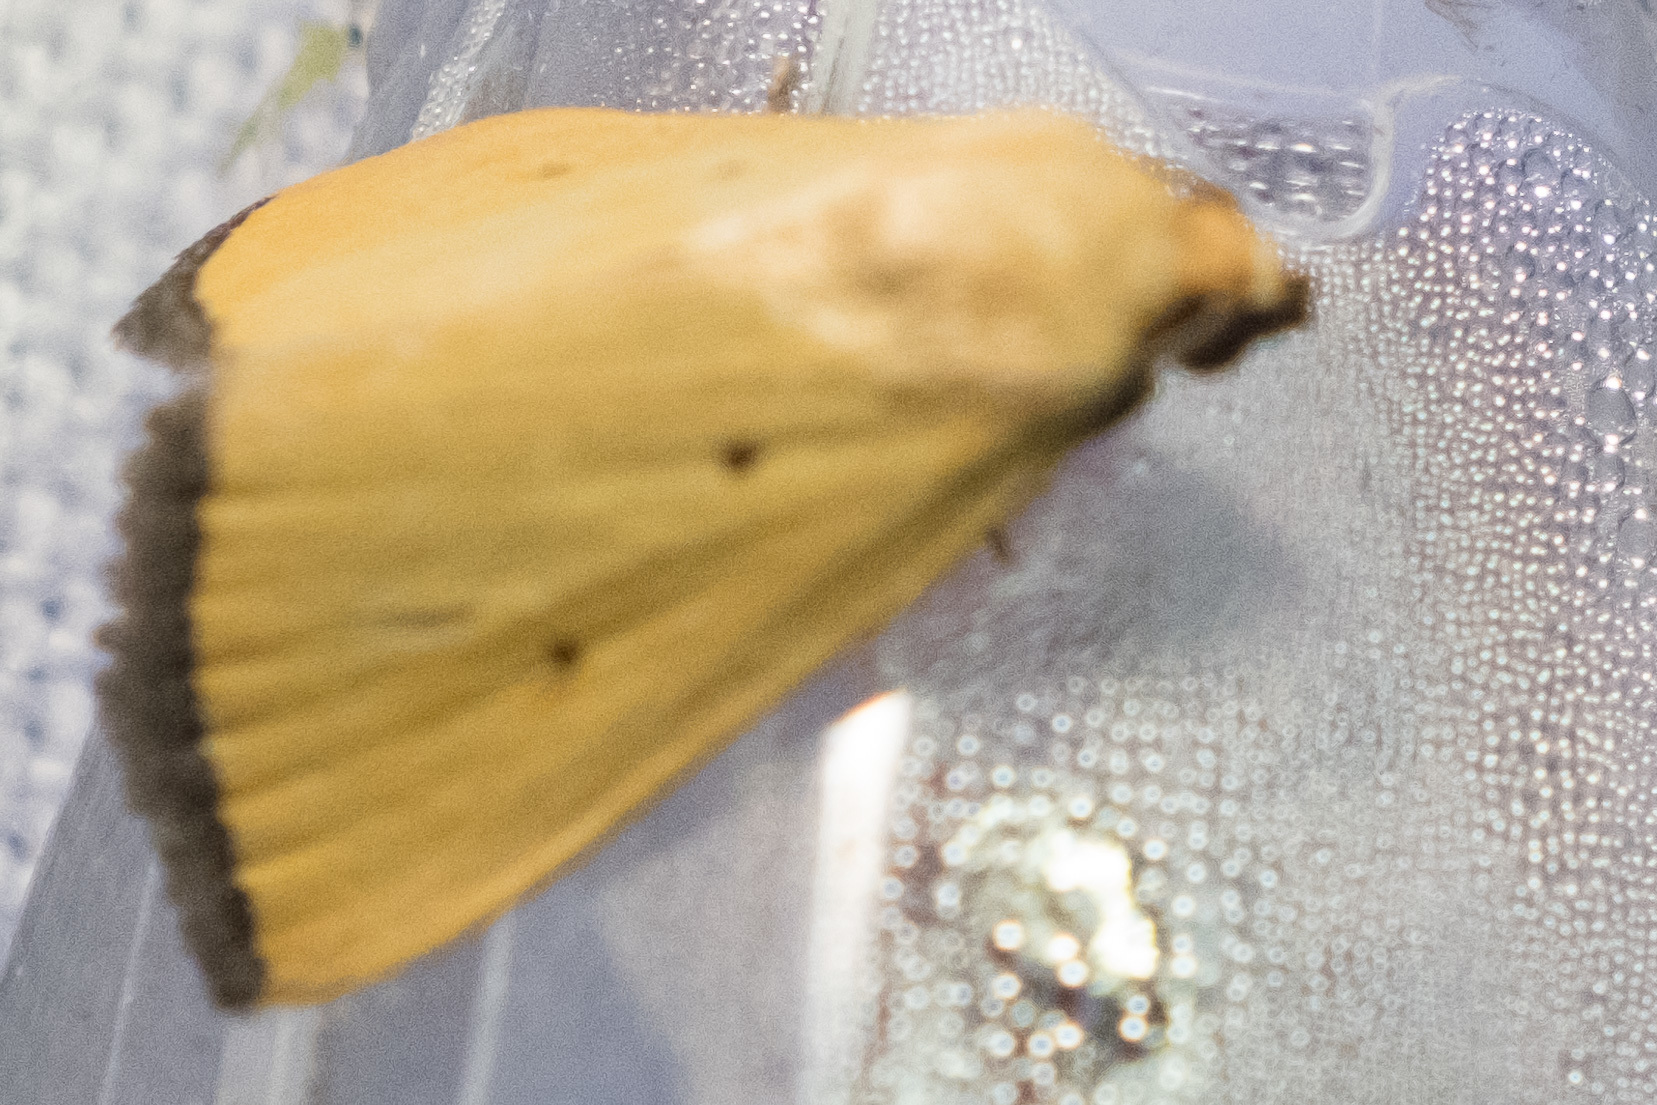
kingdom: Animalia
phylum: Arthropoda
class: Insecta
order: Lepidoptera
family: Noctuidae
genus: Marimatha
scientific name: Marimatha nigrofimbria
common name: Black-bordered lemon moth
